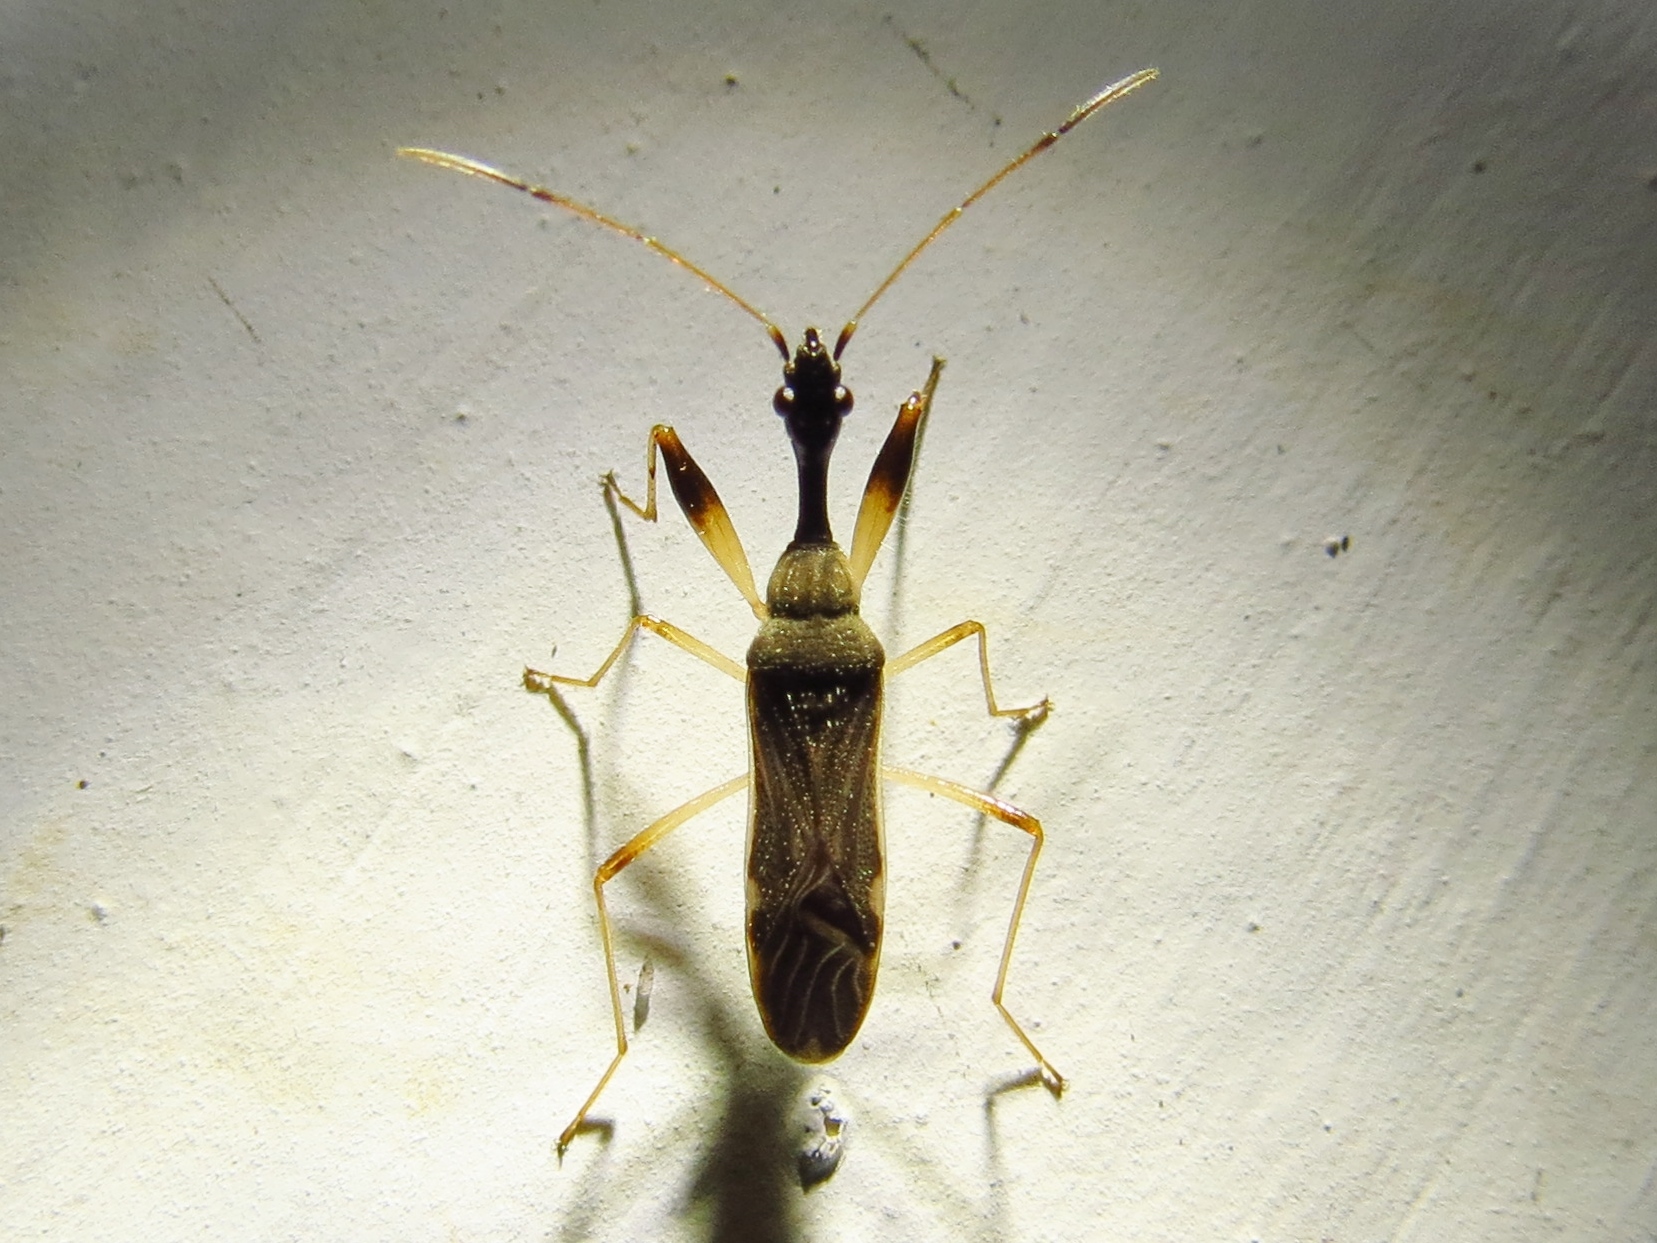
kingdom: Animalia
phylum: Arthropoda
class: Insecta
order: Hemiptera
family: Rhyparochromidae
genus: Myodocha
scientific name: Myodocha serripes
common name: Long-necked seed bug
